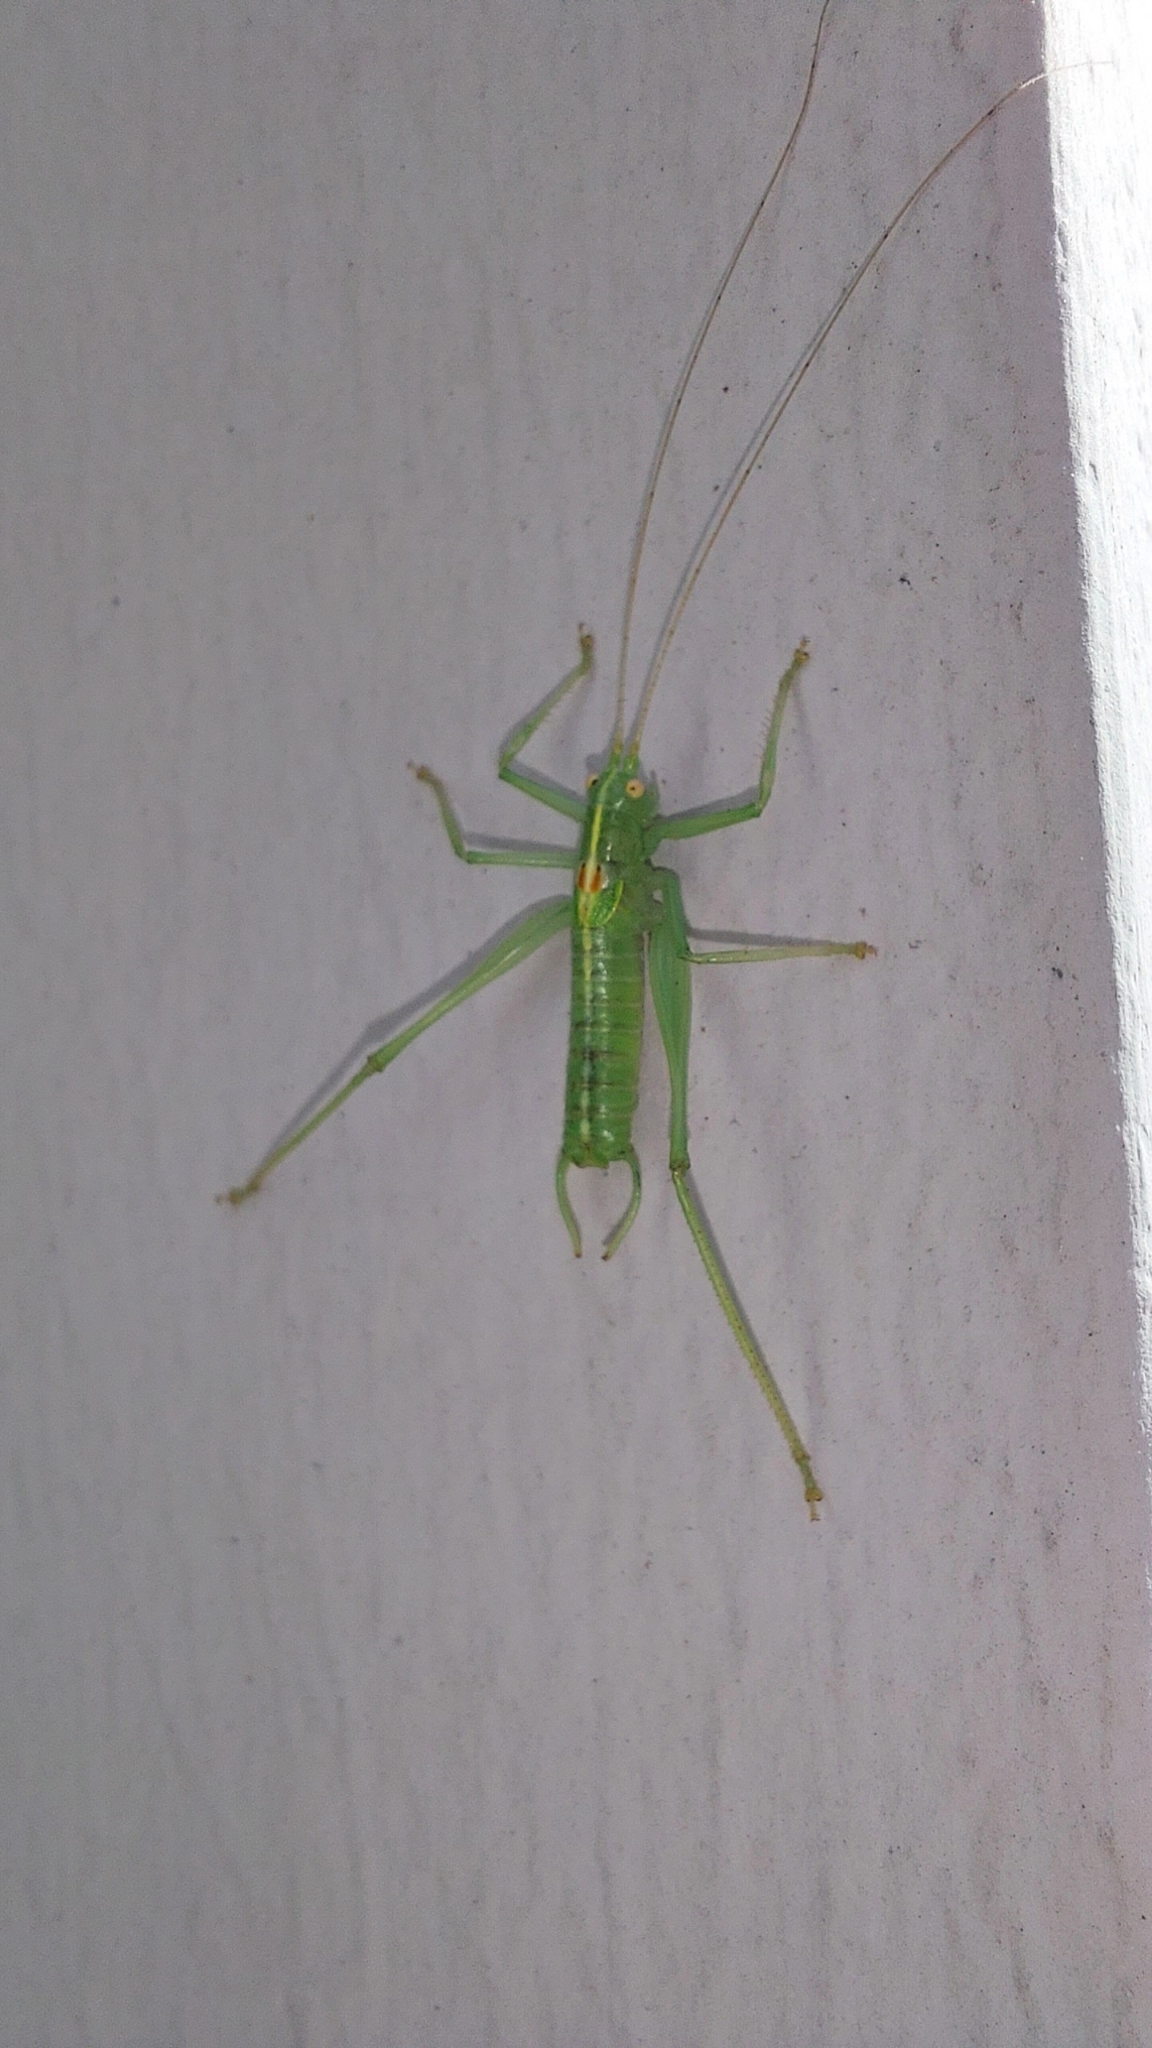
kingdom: Animalia
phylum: Arthropoda
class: Insecta
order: Orthoptera
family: Tettigoniidae
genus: Meconema
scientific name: Meconema meridionale
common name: Southern oak bush-cricket
